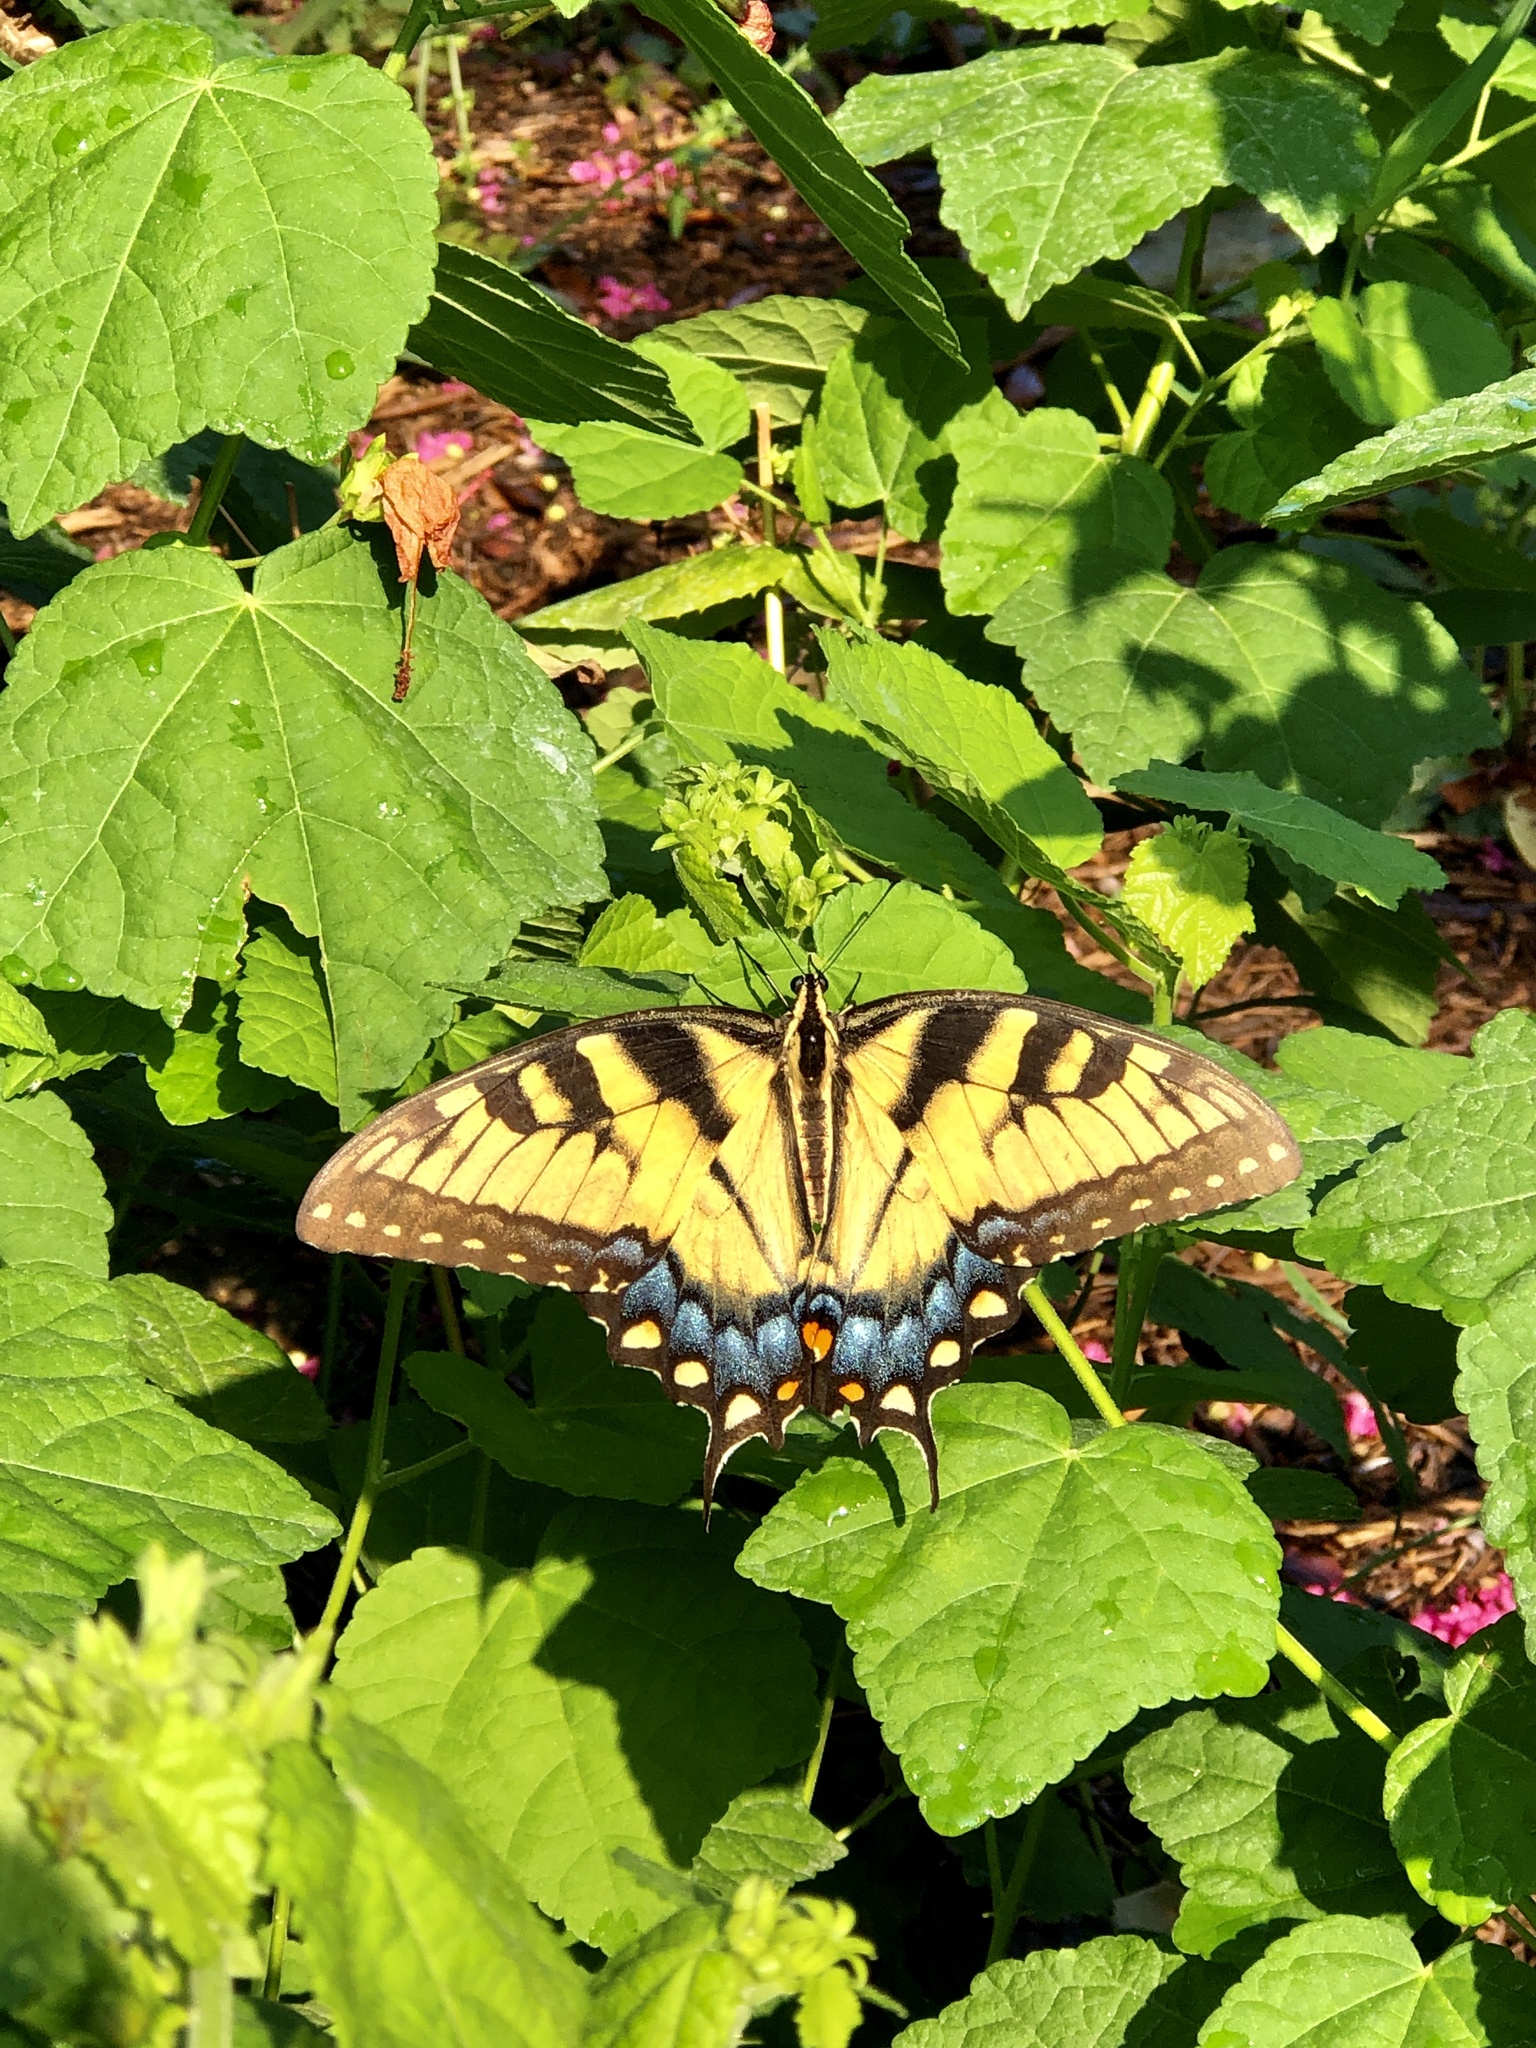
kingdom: Animalia
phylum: Arthropoda
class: Insecta
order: Lepidoptera
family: Papilionidae
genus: Papilio
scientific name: Papilio glaucus
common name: Tiger swallowtail
